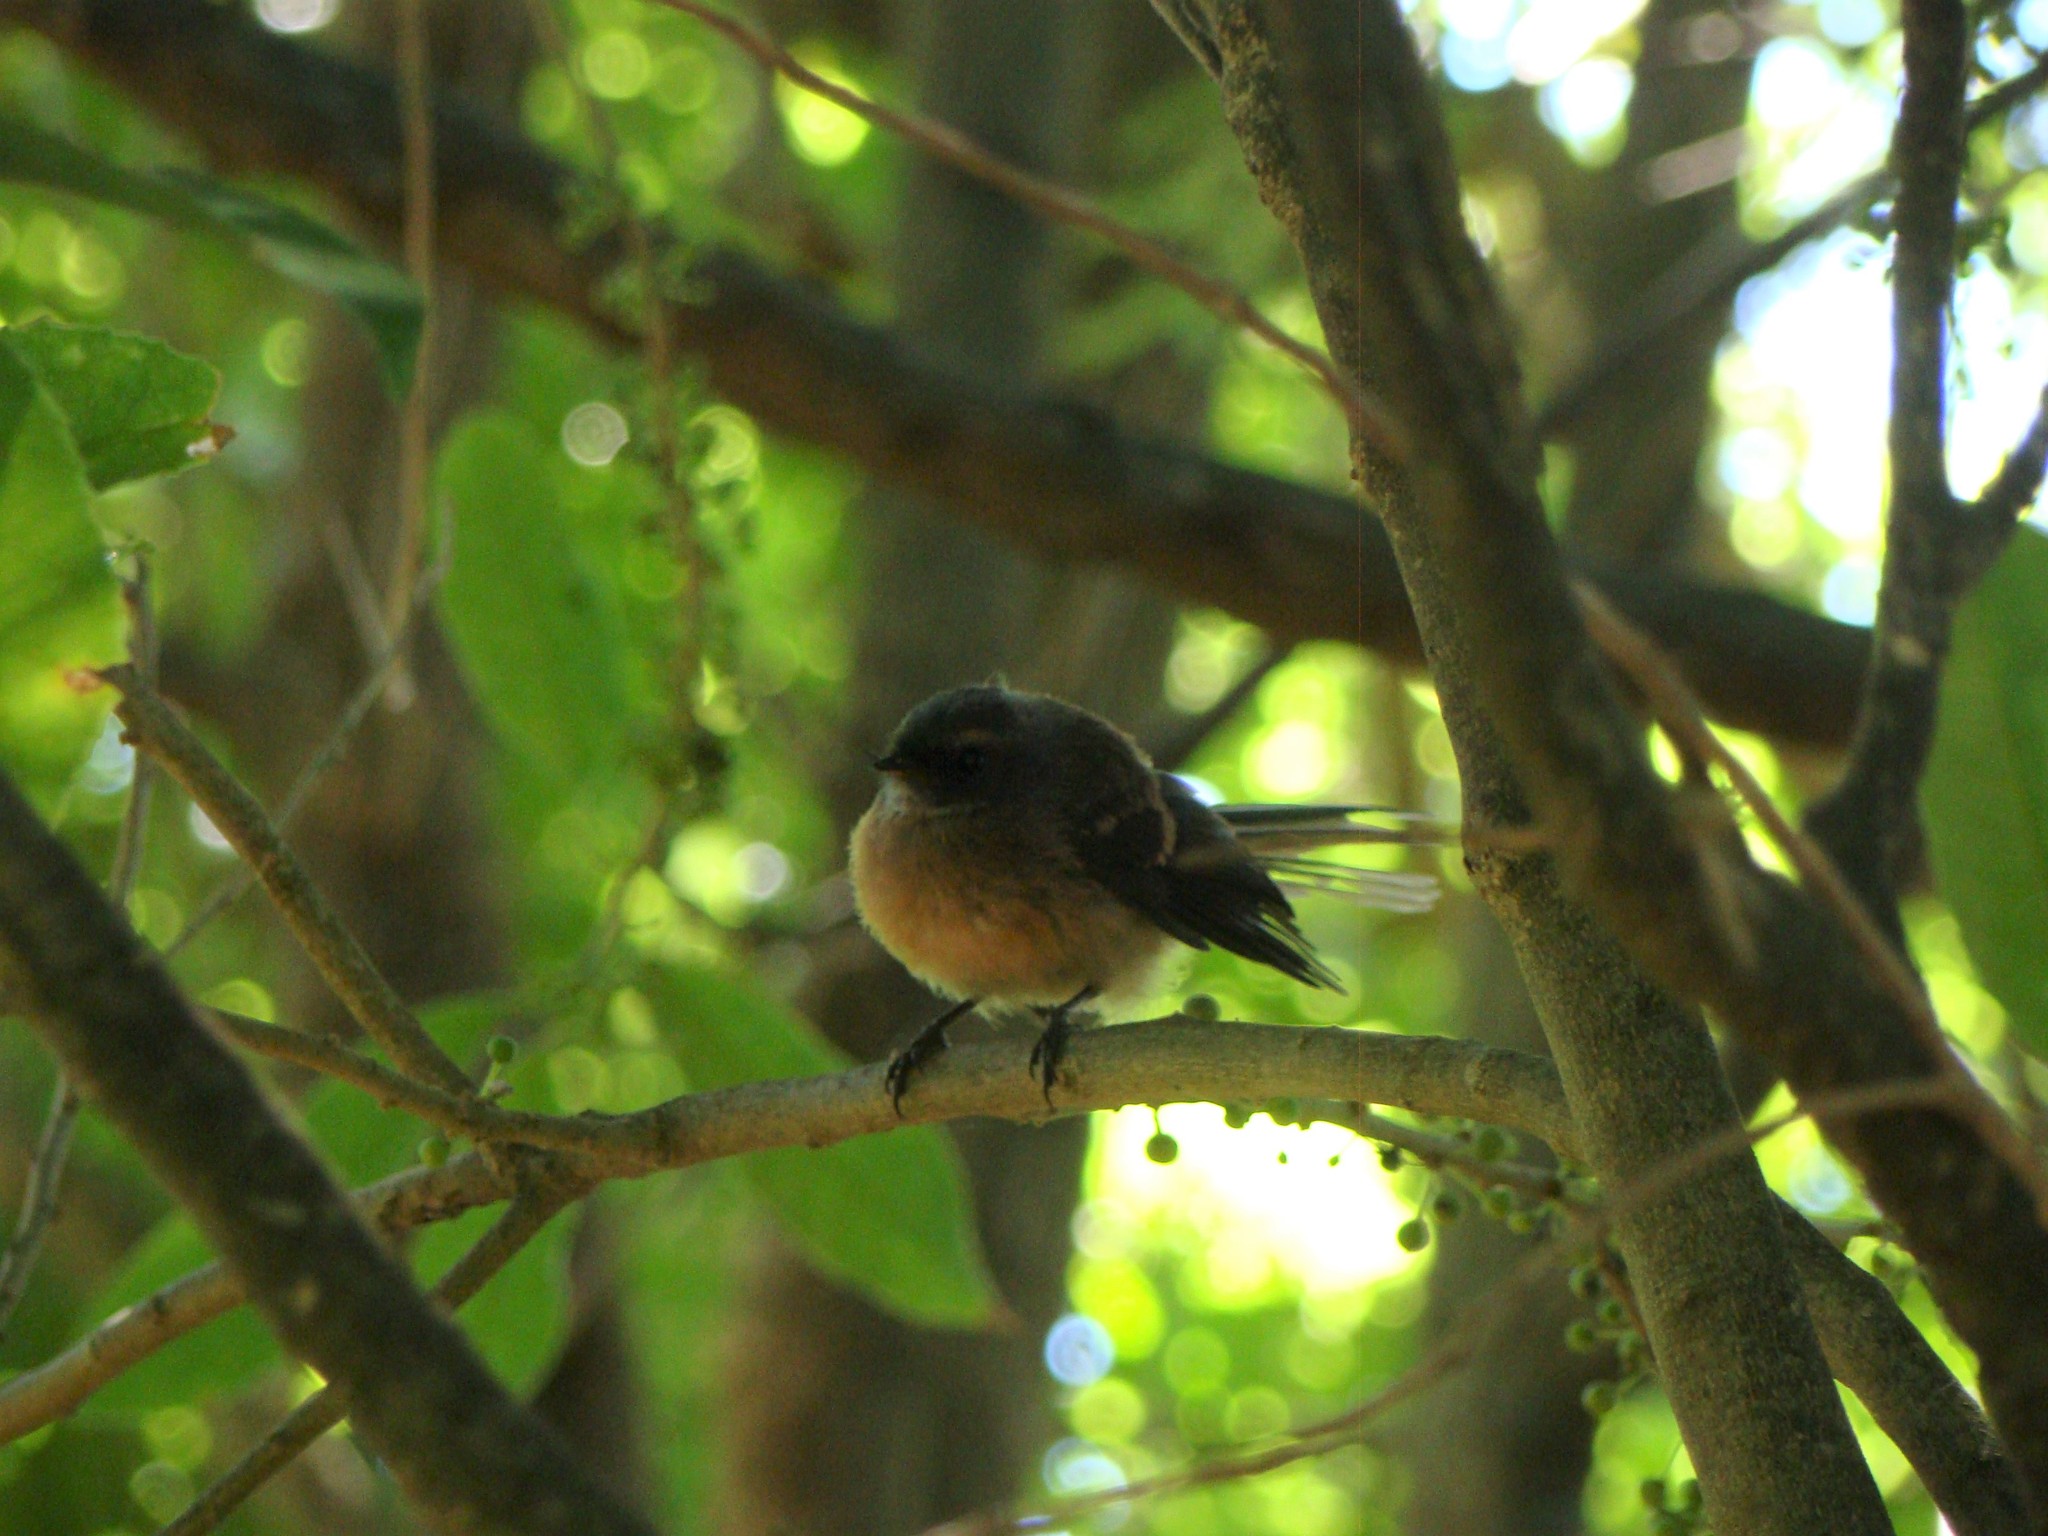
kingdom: Animalia
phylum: Chordata
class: Aves
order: Passeriformes
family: Rhipiduridae
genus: Rhipidura
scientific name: Rhipidura fuliginosa
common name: New zealand fantail
